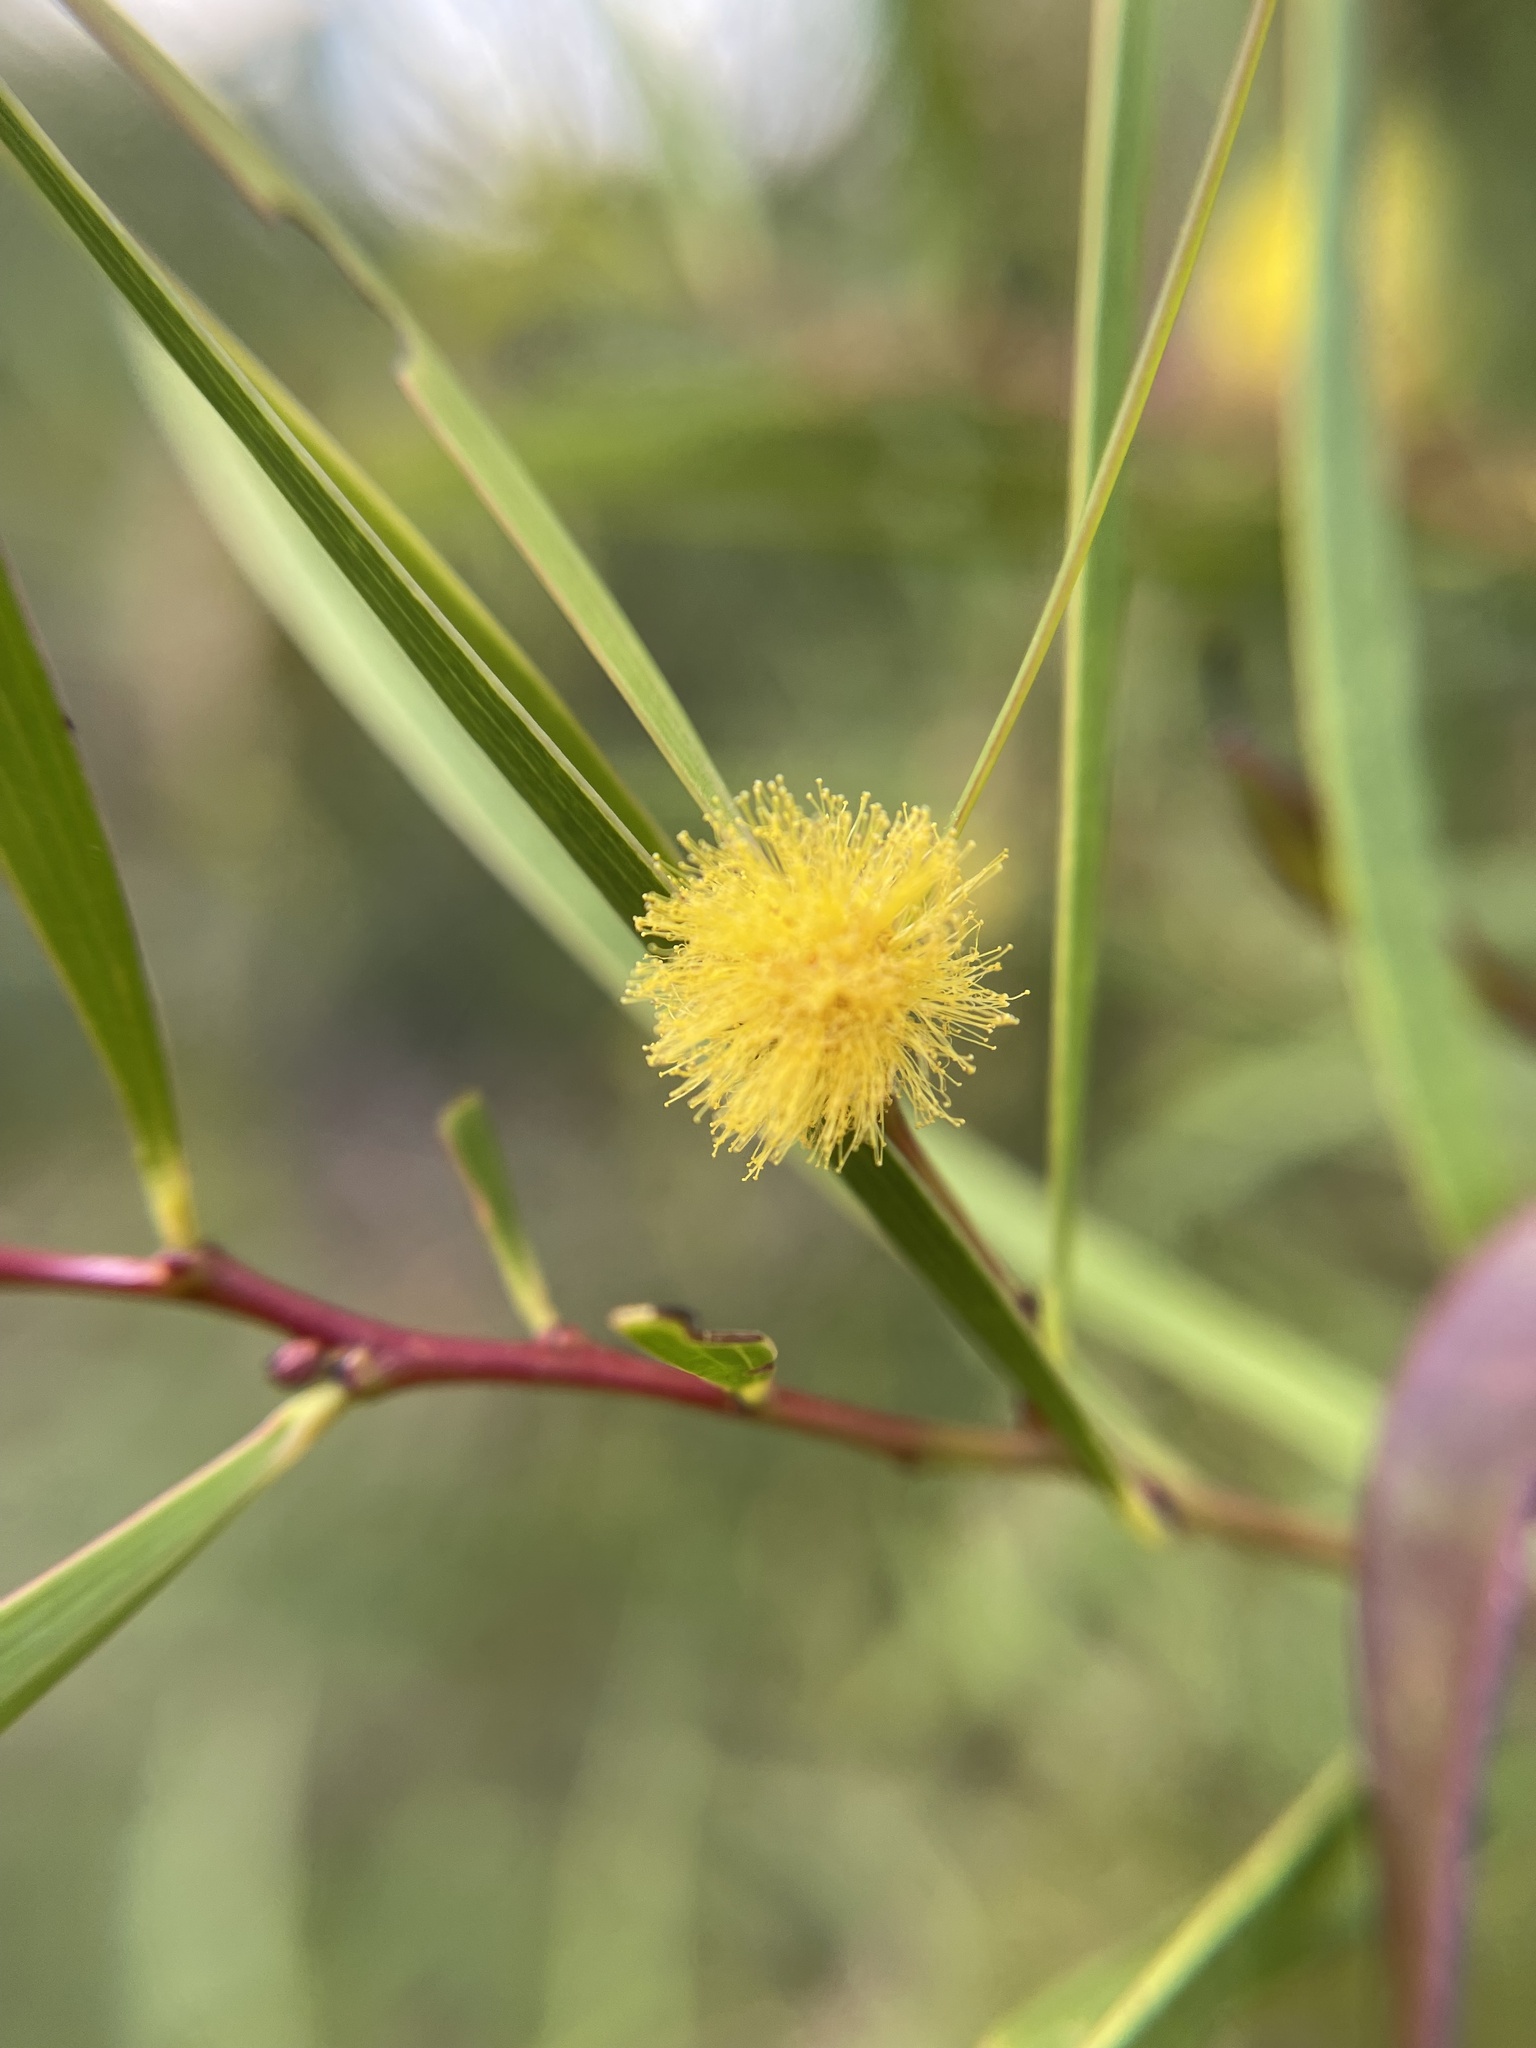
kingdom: Plantae
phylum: Tracheophyta
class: Magnoliopsida
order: Fabales
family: Fabaceae
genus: Acacia
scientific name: Acacia confusa
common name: Formosan koa
